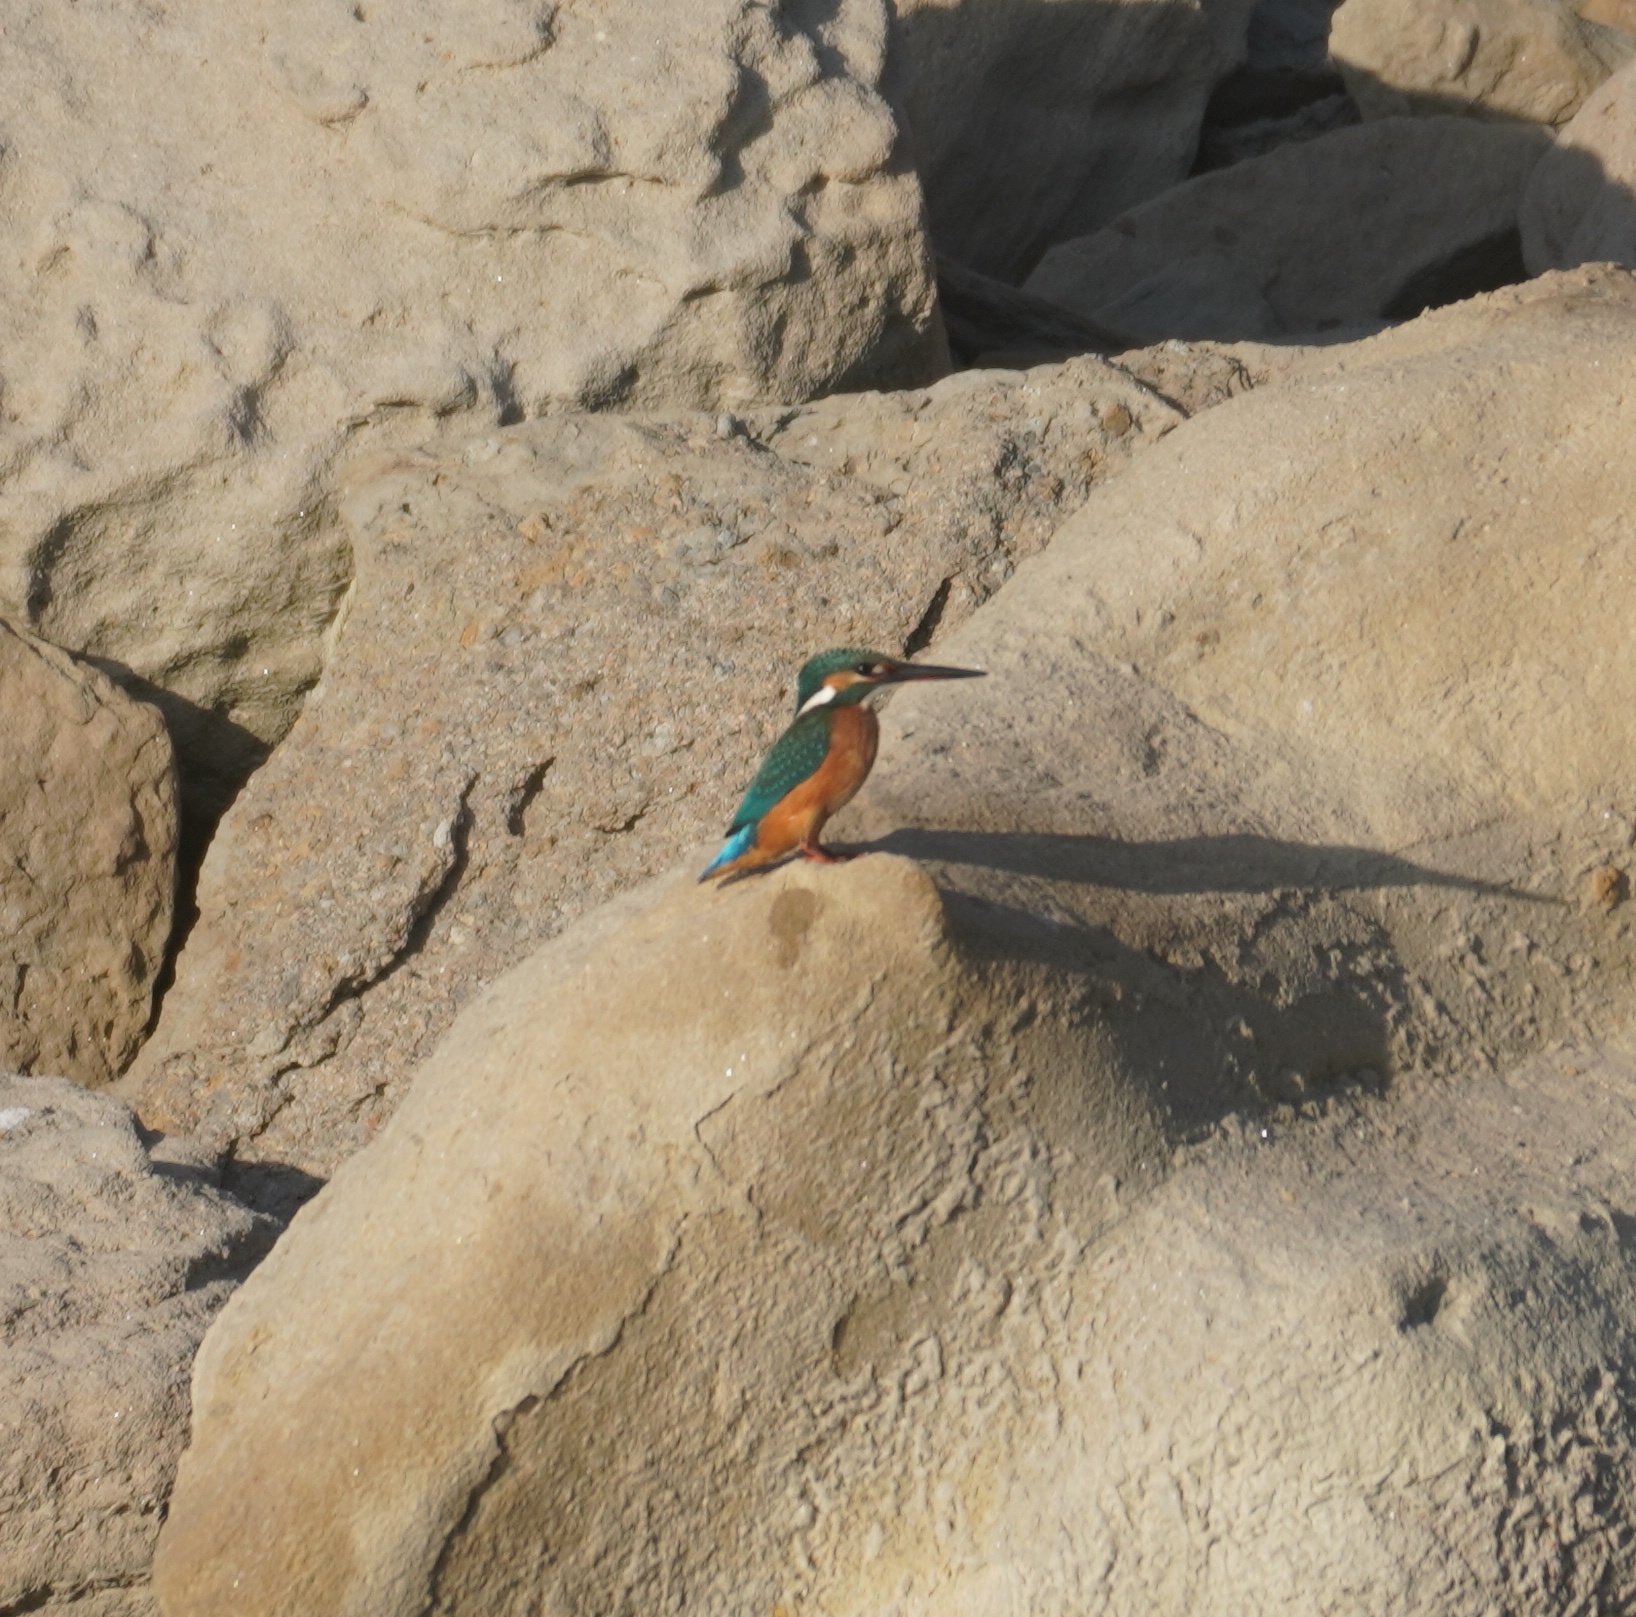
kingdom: Animalia
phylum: Chordata
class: Aves
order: Coraciiformes
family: Alcedinidae
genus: Alcedo
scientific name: Alcedo atthis
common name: Common kingfisher
